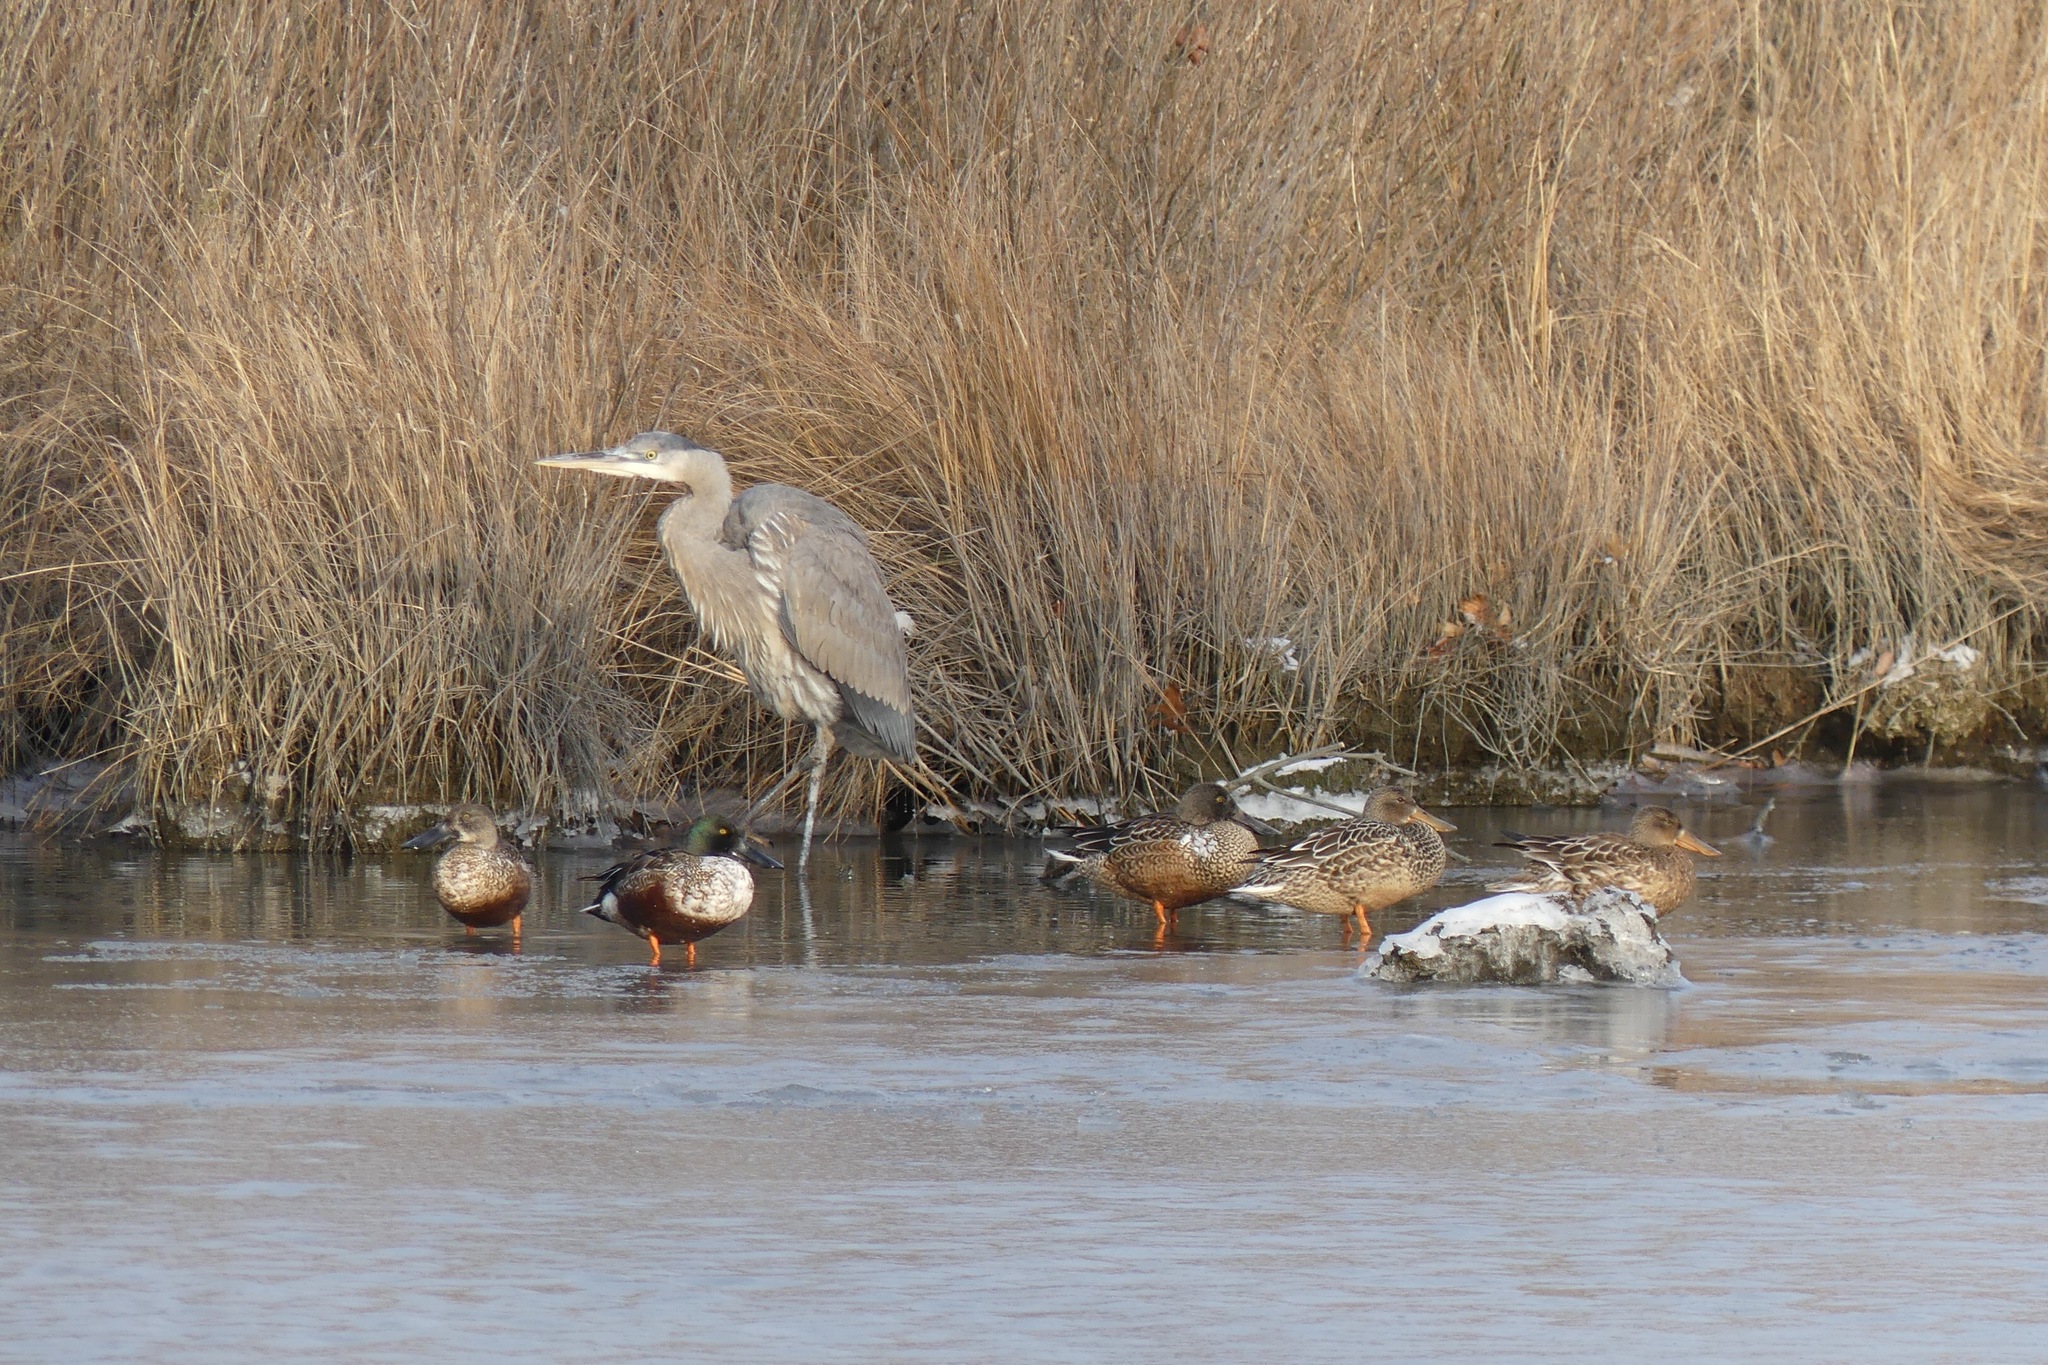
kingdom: Animalia
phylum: Chordata
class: Aves
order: Pelecaniformes
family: Ardeidae
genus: Ardea
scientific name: Ardea herodias
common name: Great blue heron
